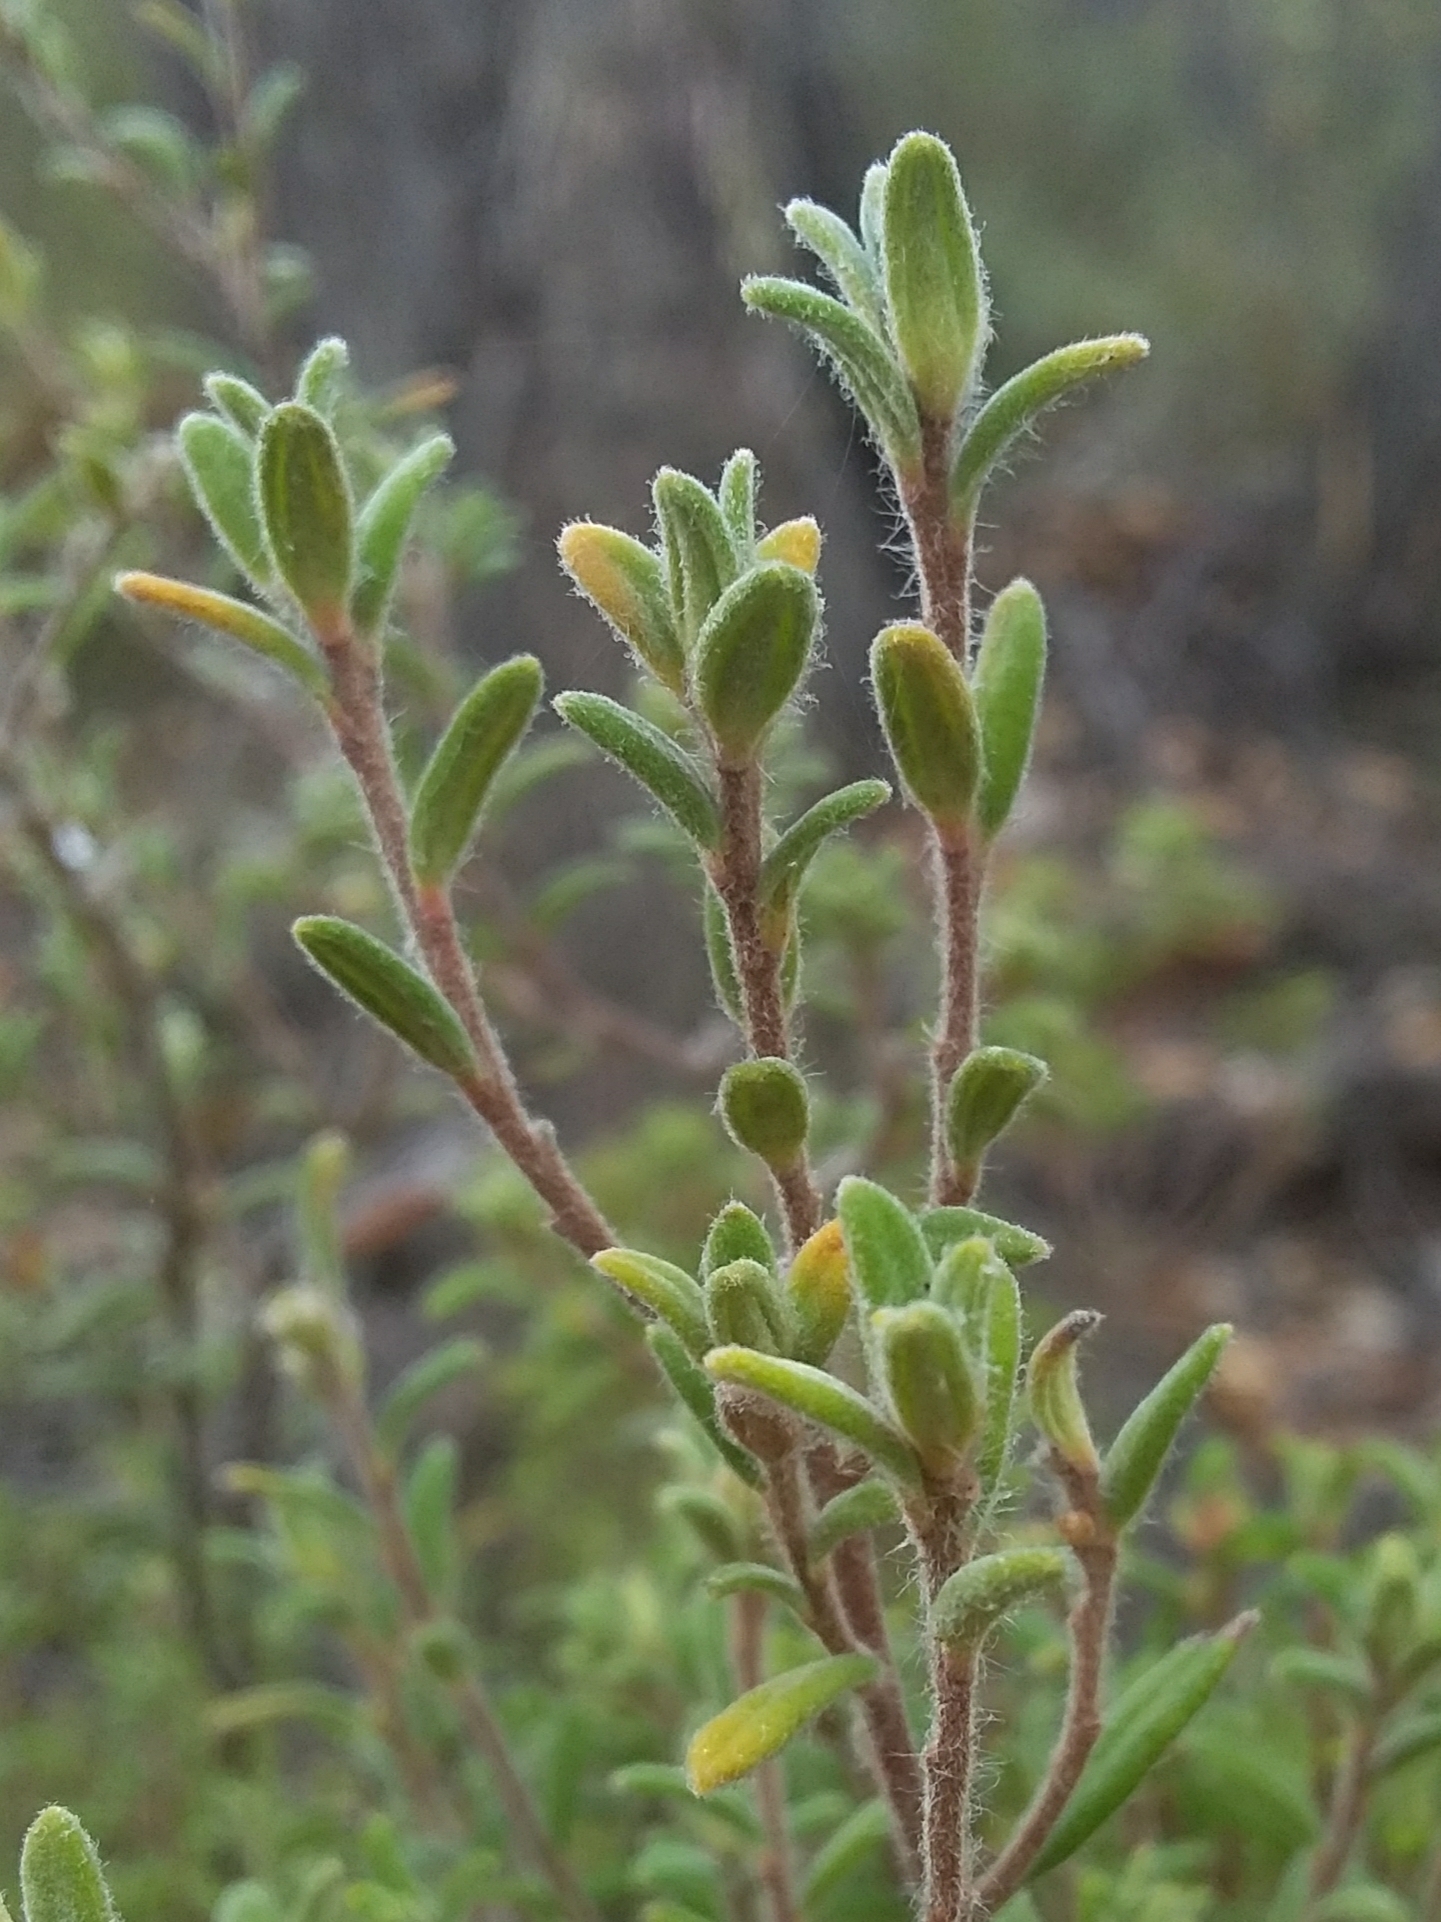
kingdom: Plantae
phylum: Tracheophyta
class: Magnoliopsida
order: Dilleniales
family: Dilleniaceae
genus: Hibbertia
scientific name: Hibbertia crinita
